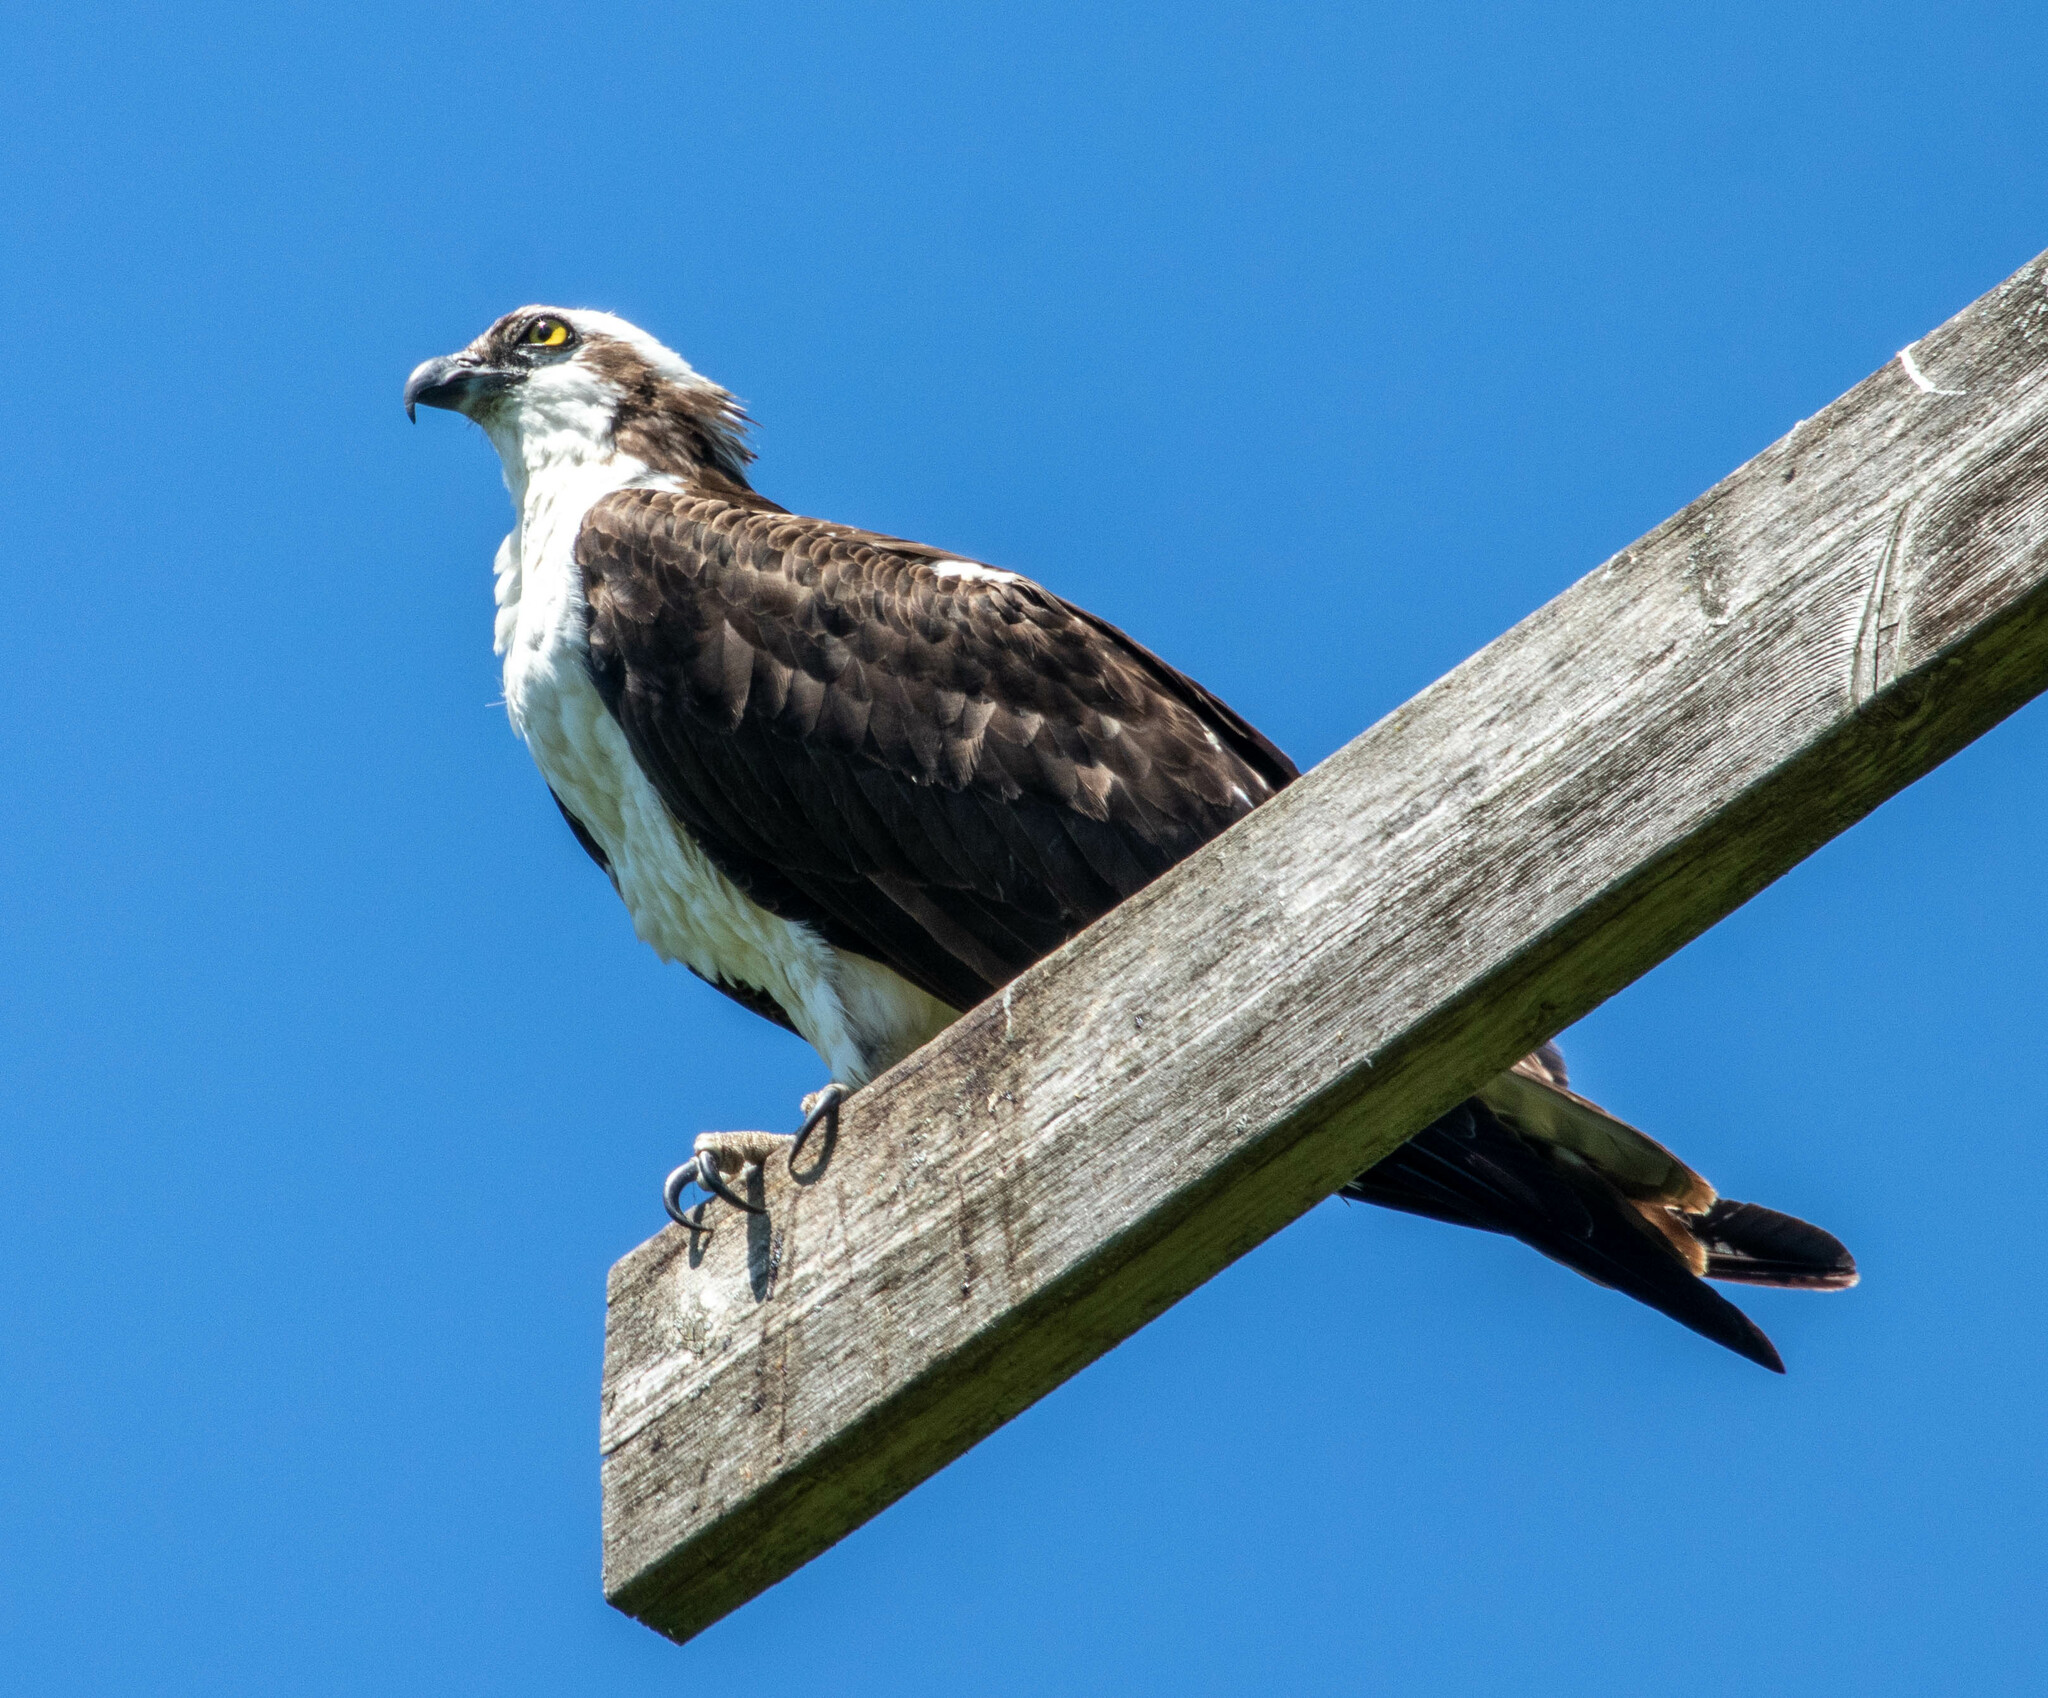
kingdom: Animalia
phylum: Chordata
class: Aves
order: Accipitriformes
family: Pandionidae
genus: Pandion
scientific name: Pandion haliaetus
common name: Osprey
